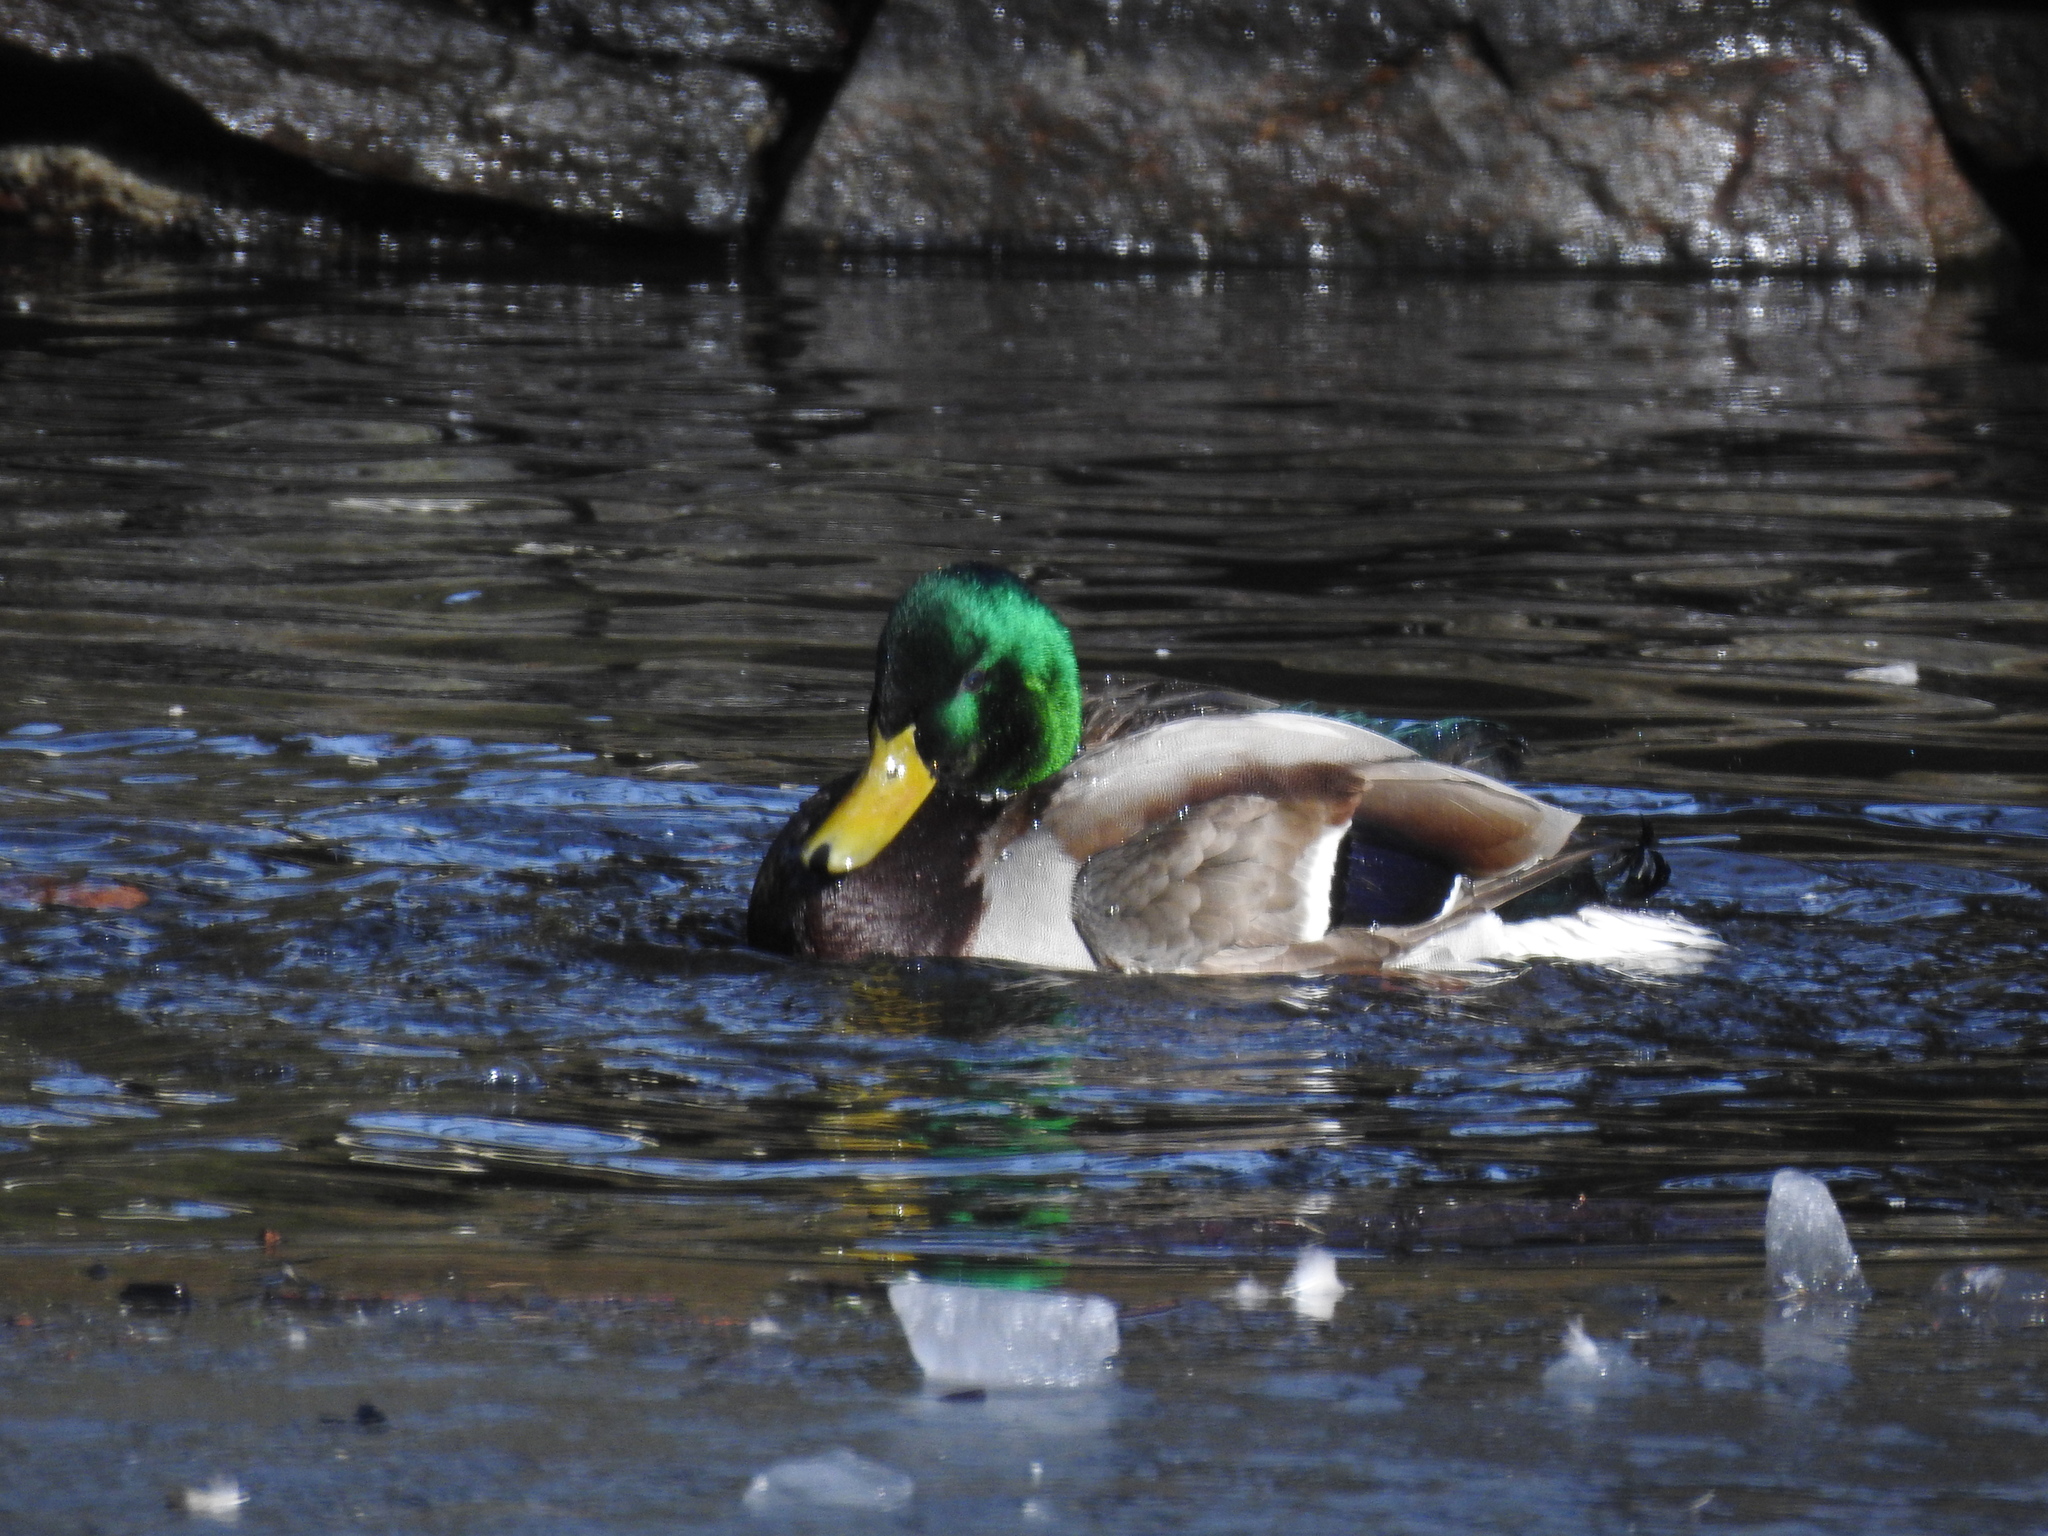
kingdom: Animalia
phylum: Chordata
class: Aves
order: Anseriformes
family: Anatidae
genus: Anas
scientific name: Anas platyrhynchos
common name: Mallard
